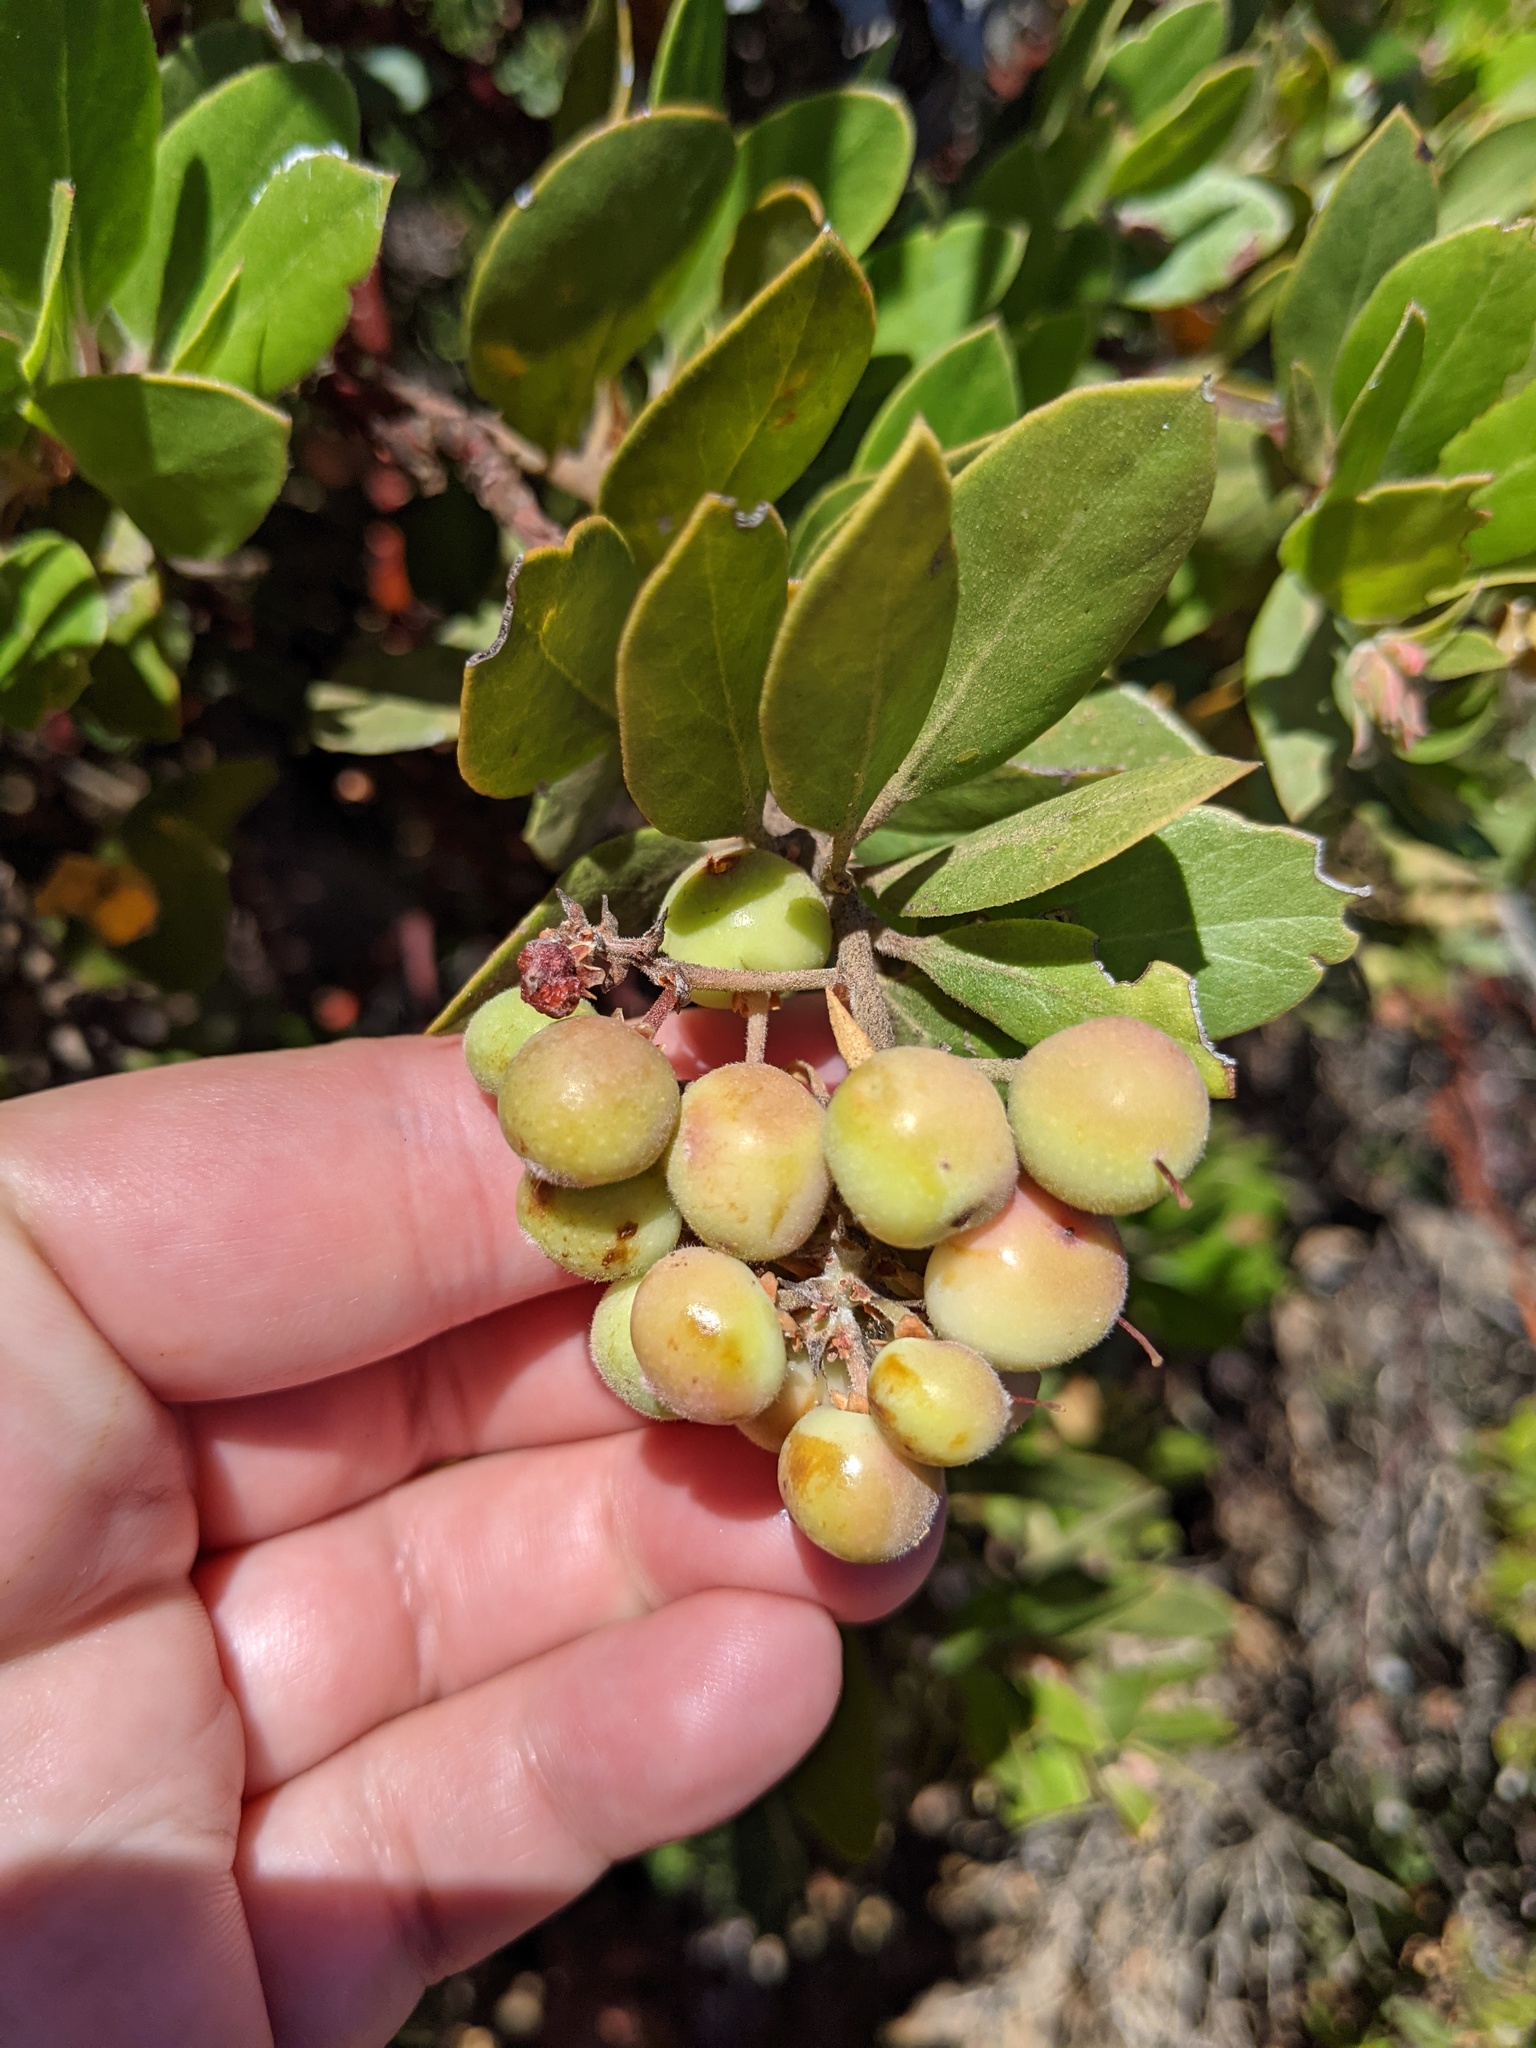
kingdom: Plantae
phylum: Tracheophyta
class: Magnoliopsida
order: Ericales
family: Ericaceae
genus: Arctostaphylos
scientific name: Arctostaphylos glandulosa
